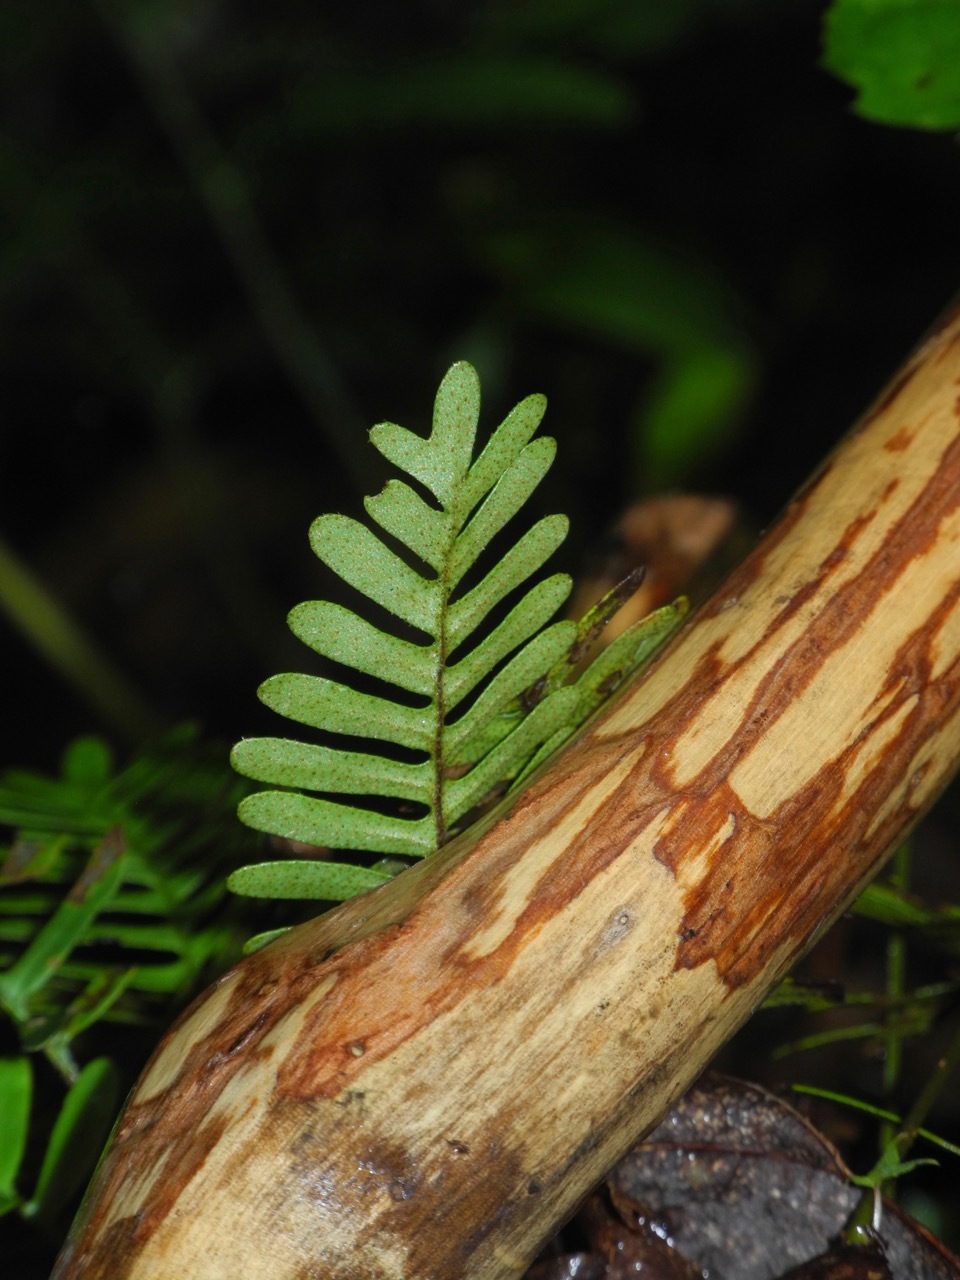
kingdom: Plantae
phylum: Tracheophyta
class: Polypodiopsida
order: Polypodiales
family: Polypodiaceae
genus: Pleopeltis
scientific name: Pleopeltis michauxiana
